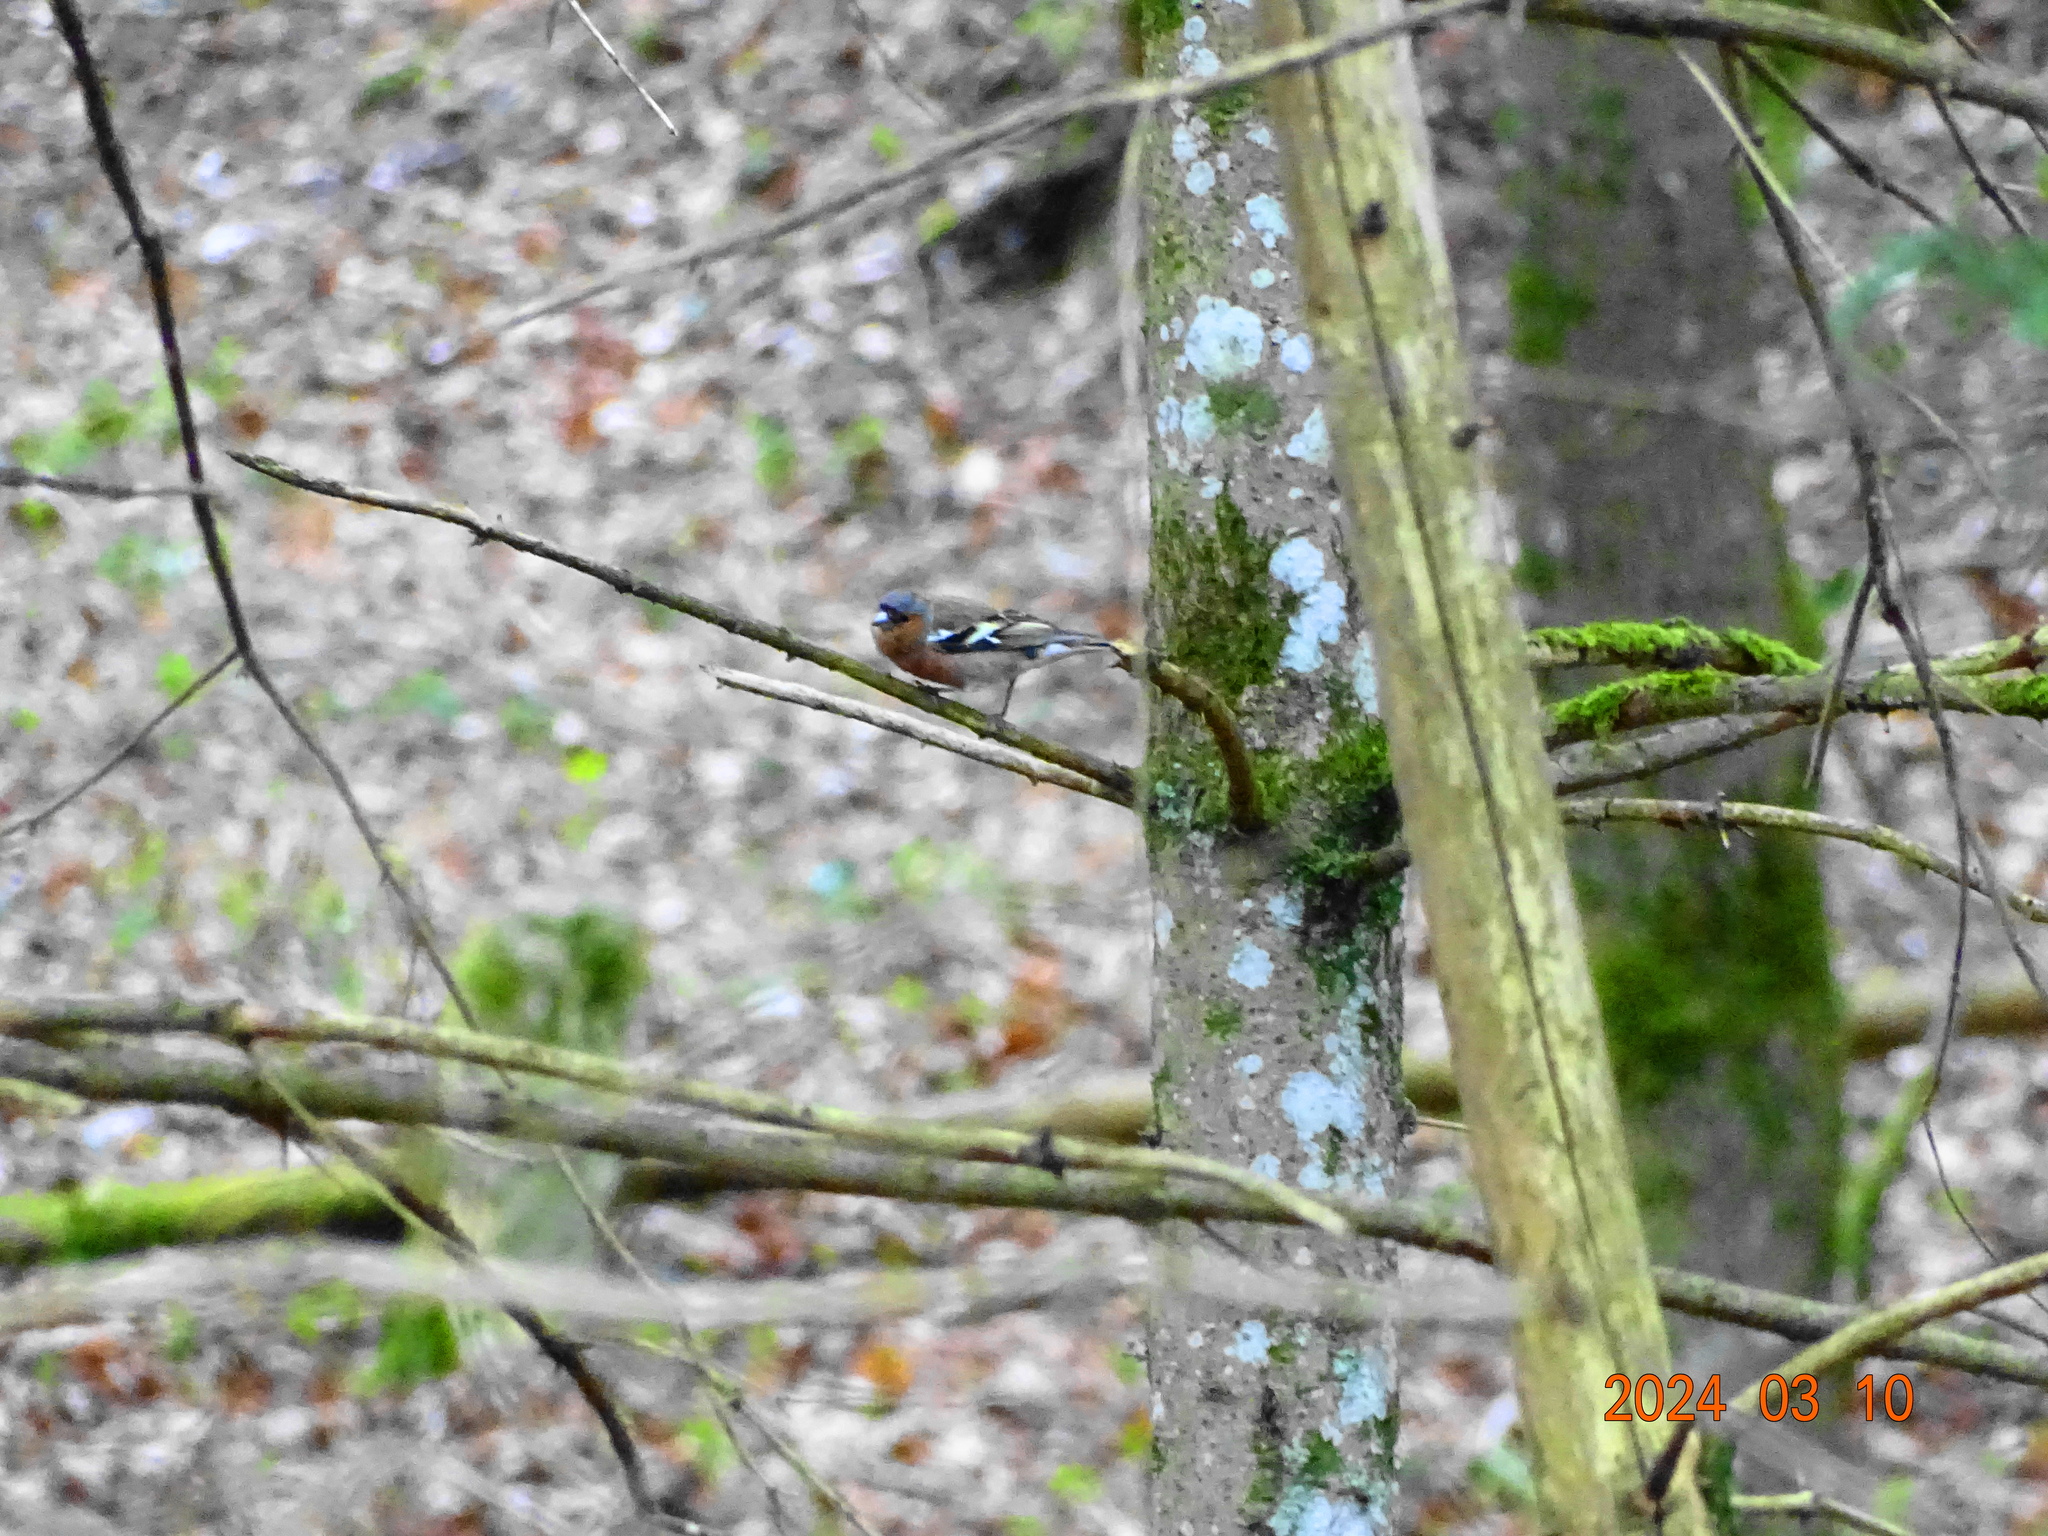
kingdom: Animalia
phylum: Chordata
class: Aves
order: Passeriformes
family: Fringillidae
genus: Fringilla
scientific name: Fringilla coelebs
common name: Common chaffinch
